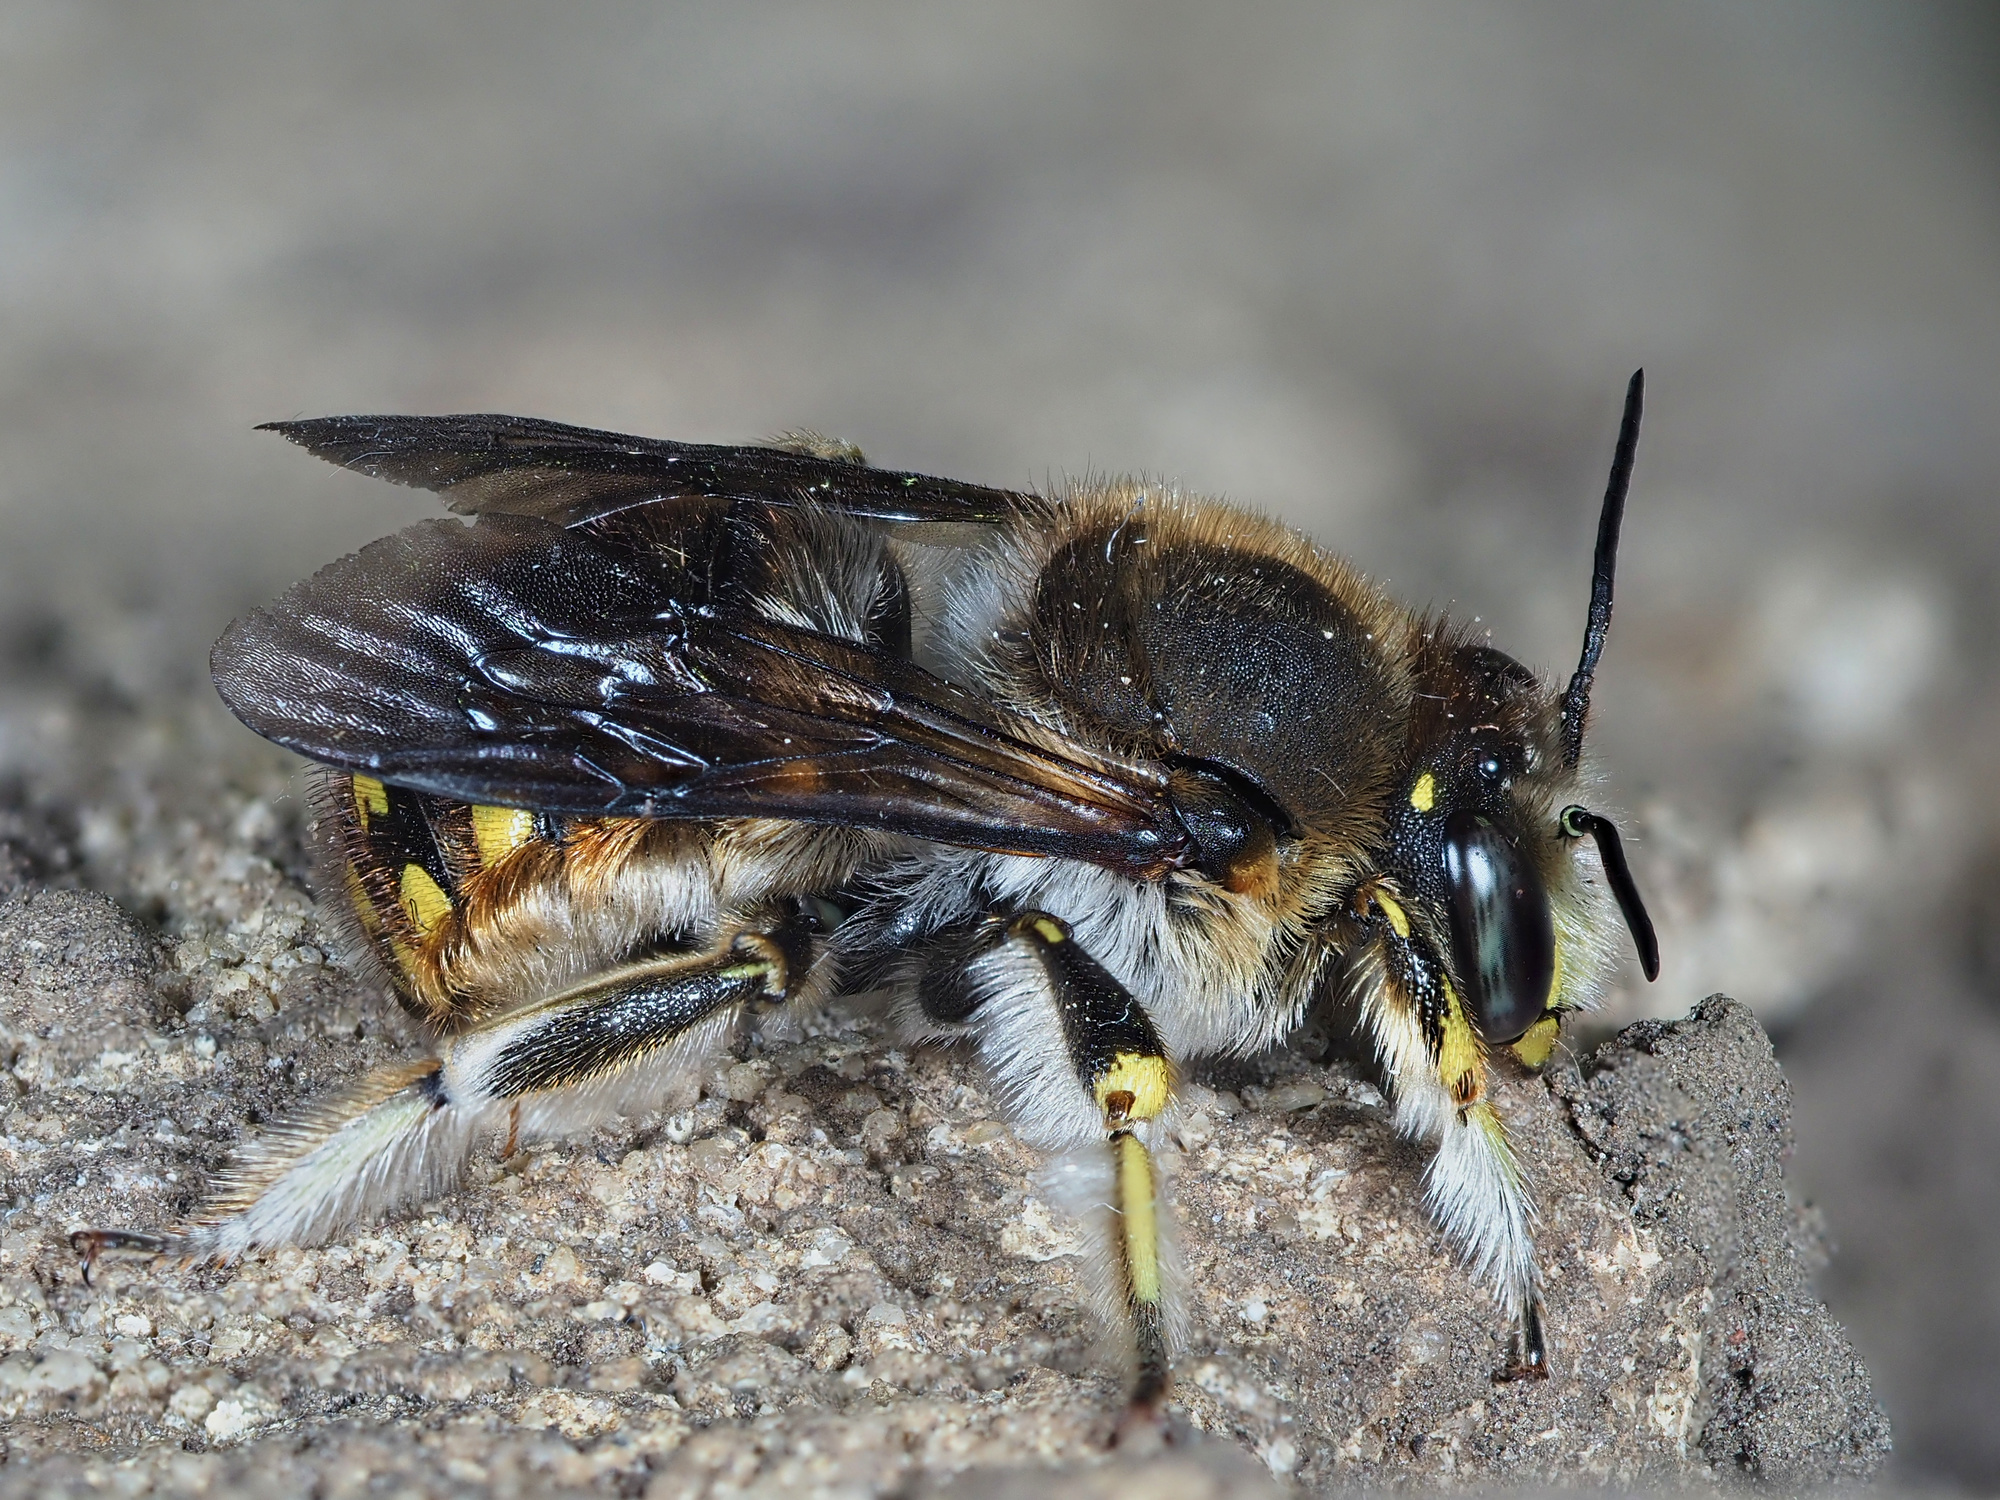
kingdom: Animalia
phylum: Arthropoda
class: Insecta
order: Hymenoptera
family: Megachilidae
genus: Anthidium
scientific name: Anthidium manicatum
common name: Wool carder bee
